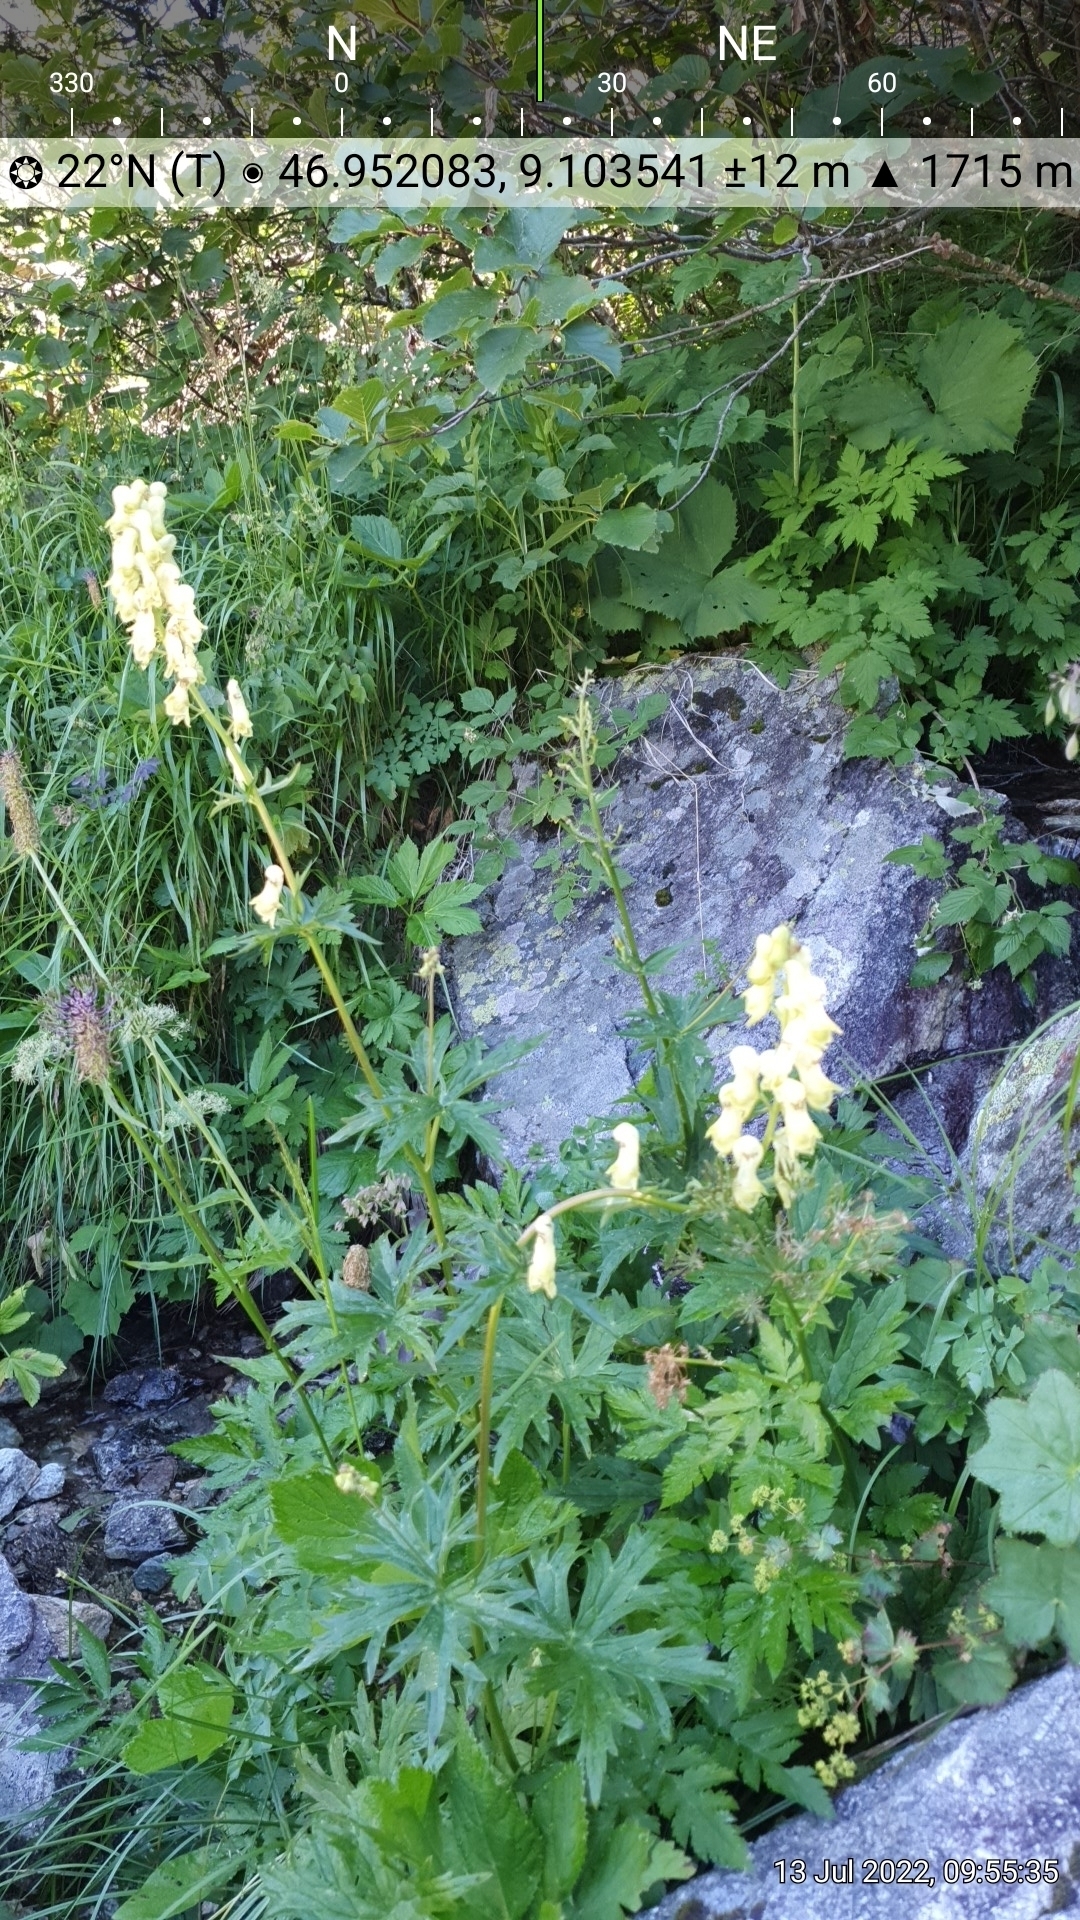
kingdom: Plantae
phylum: Tracheophyta
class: Magnoliopsida
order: Ranunculales
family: Ranunculaceae
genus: Aconitum
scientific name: Aconitum lycoctonum
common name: Wolf's-bane
